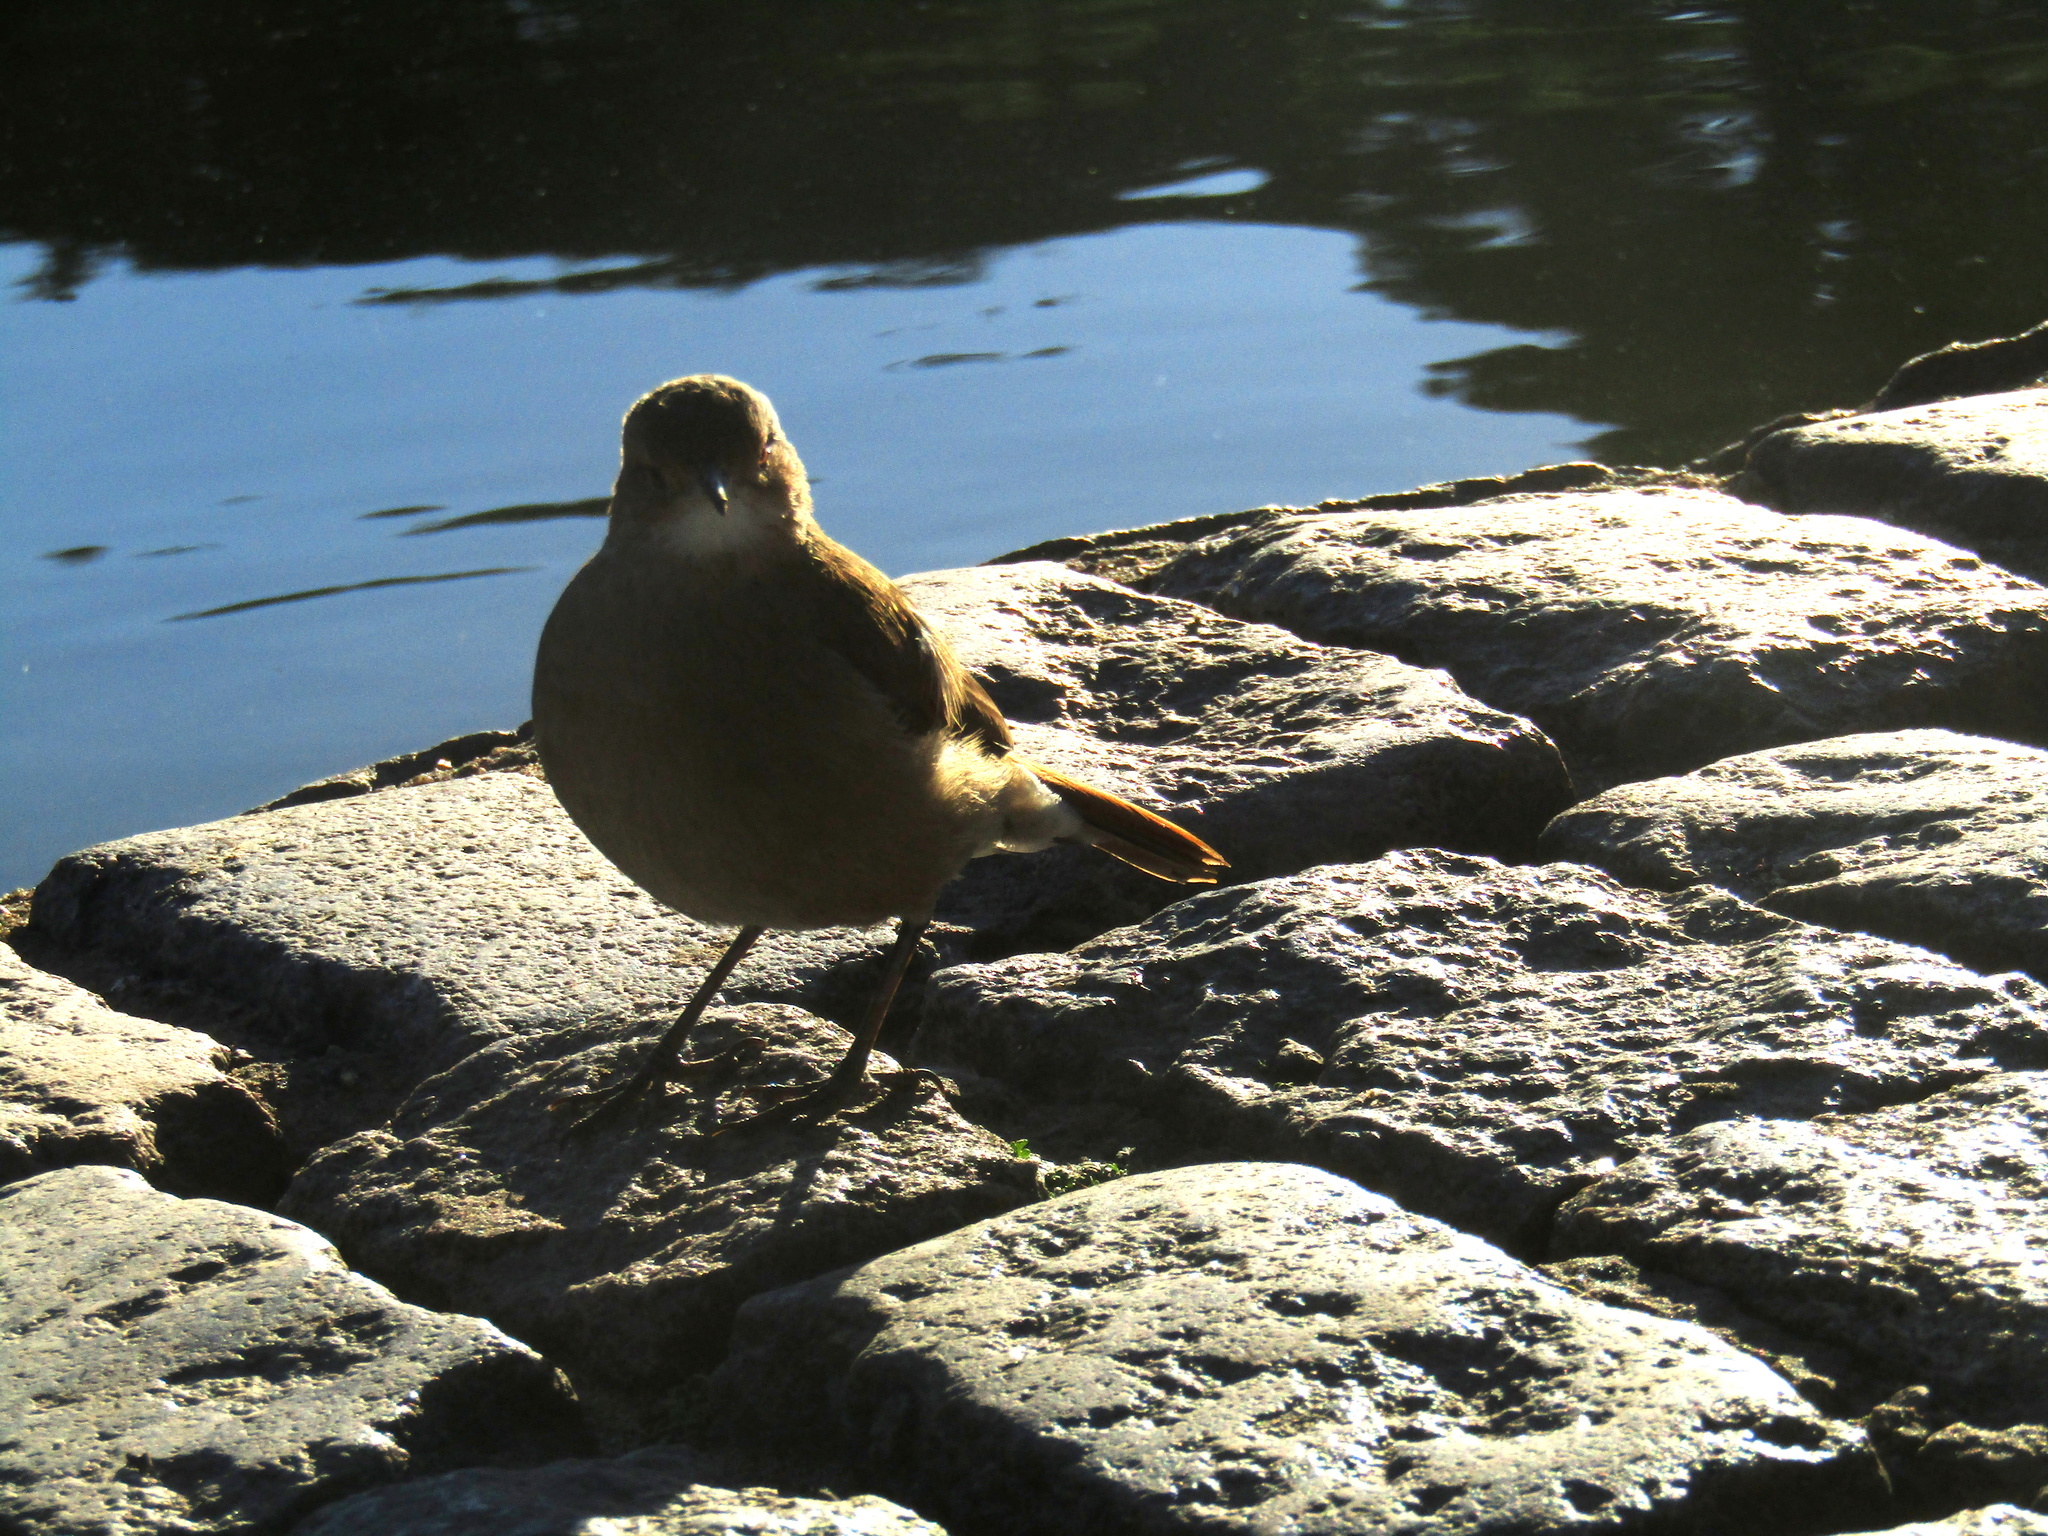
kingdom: Animalia
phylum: Chordata
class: Aves
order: Passeriformes
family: Furnariidae
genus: Furnarius
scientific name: Furnarius rufus
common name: Rufous hornero
